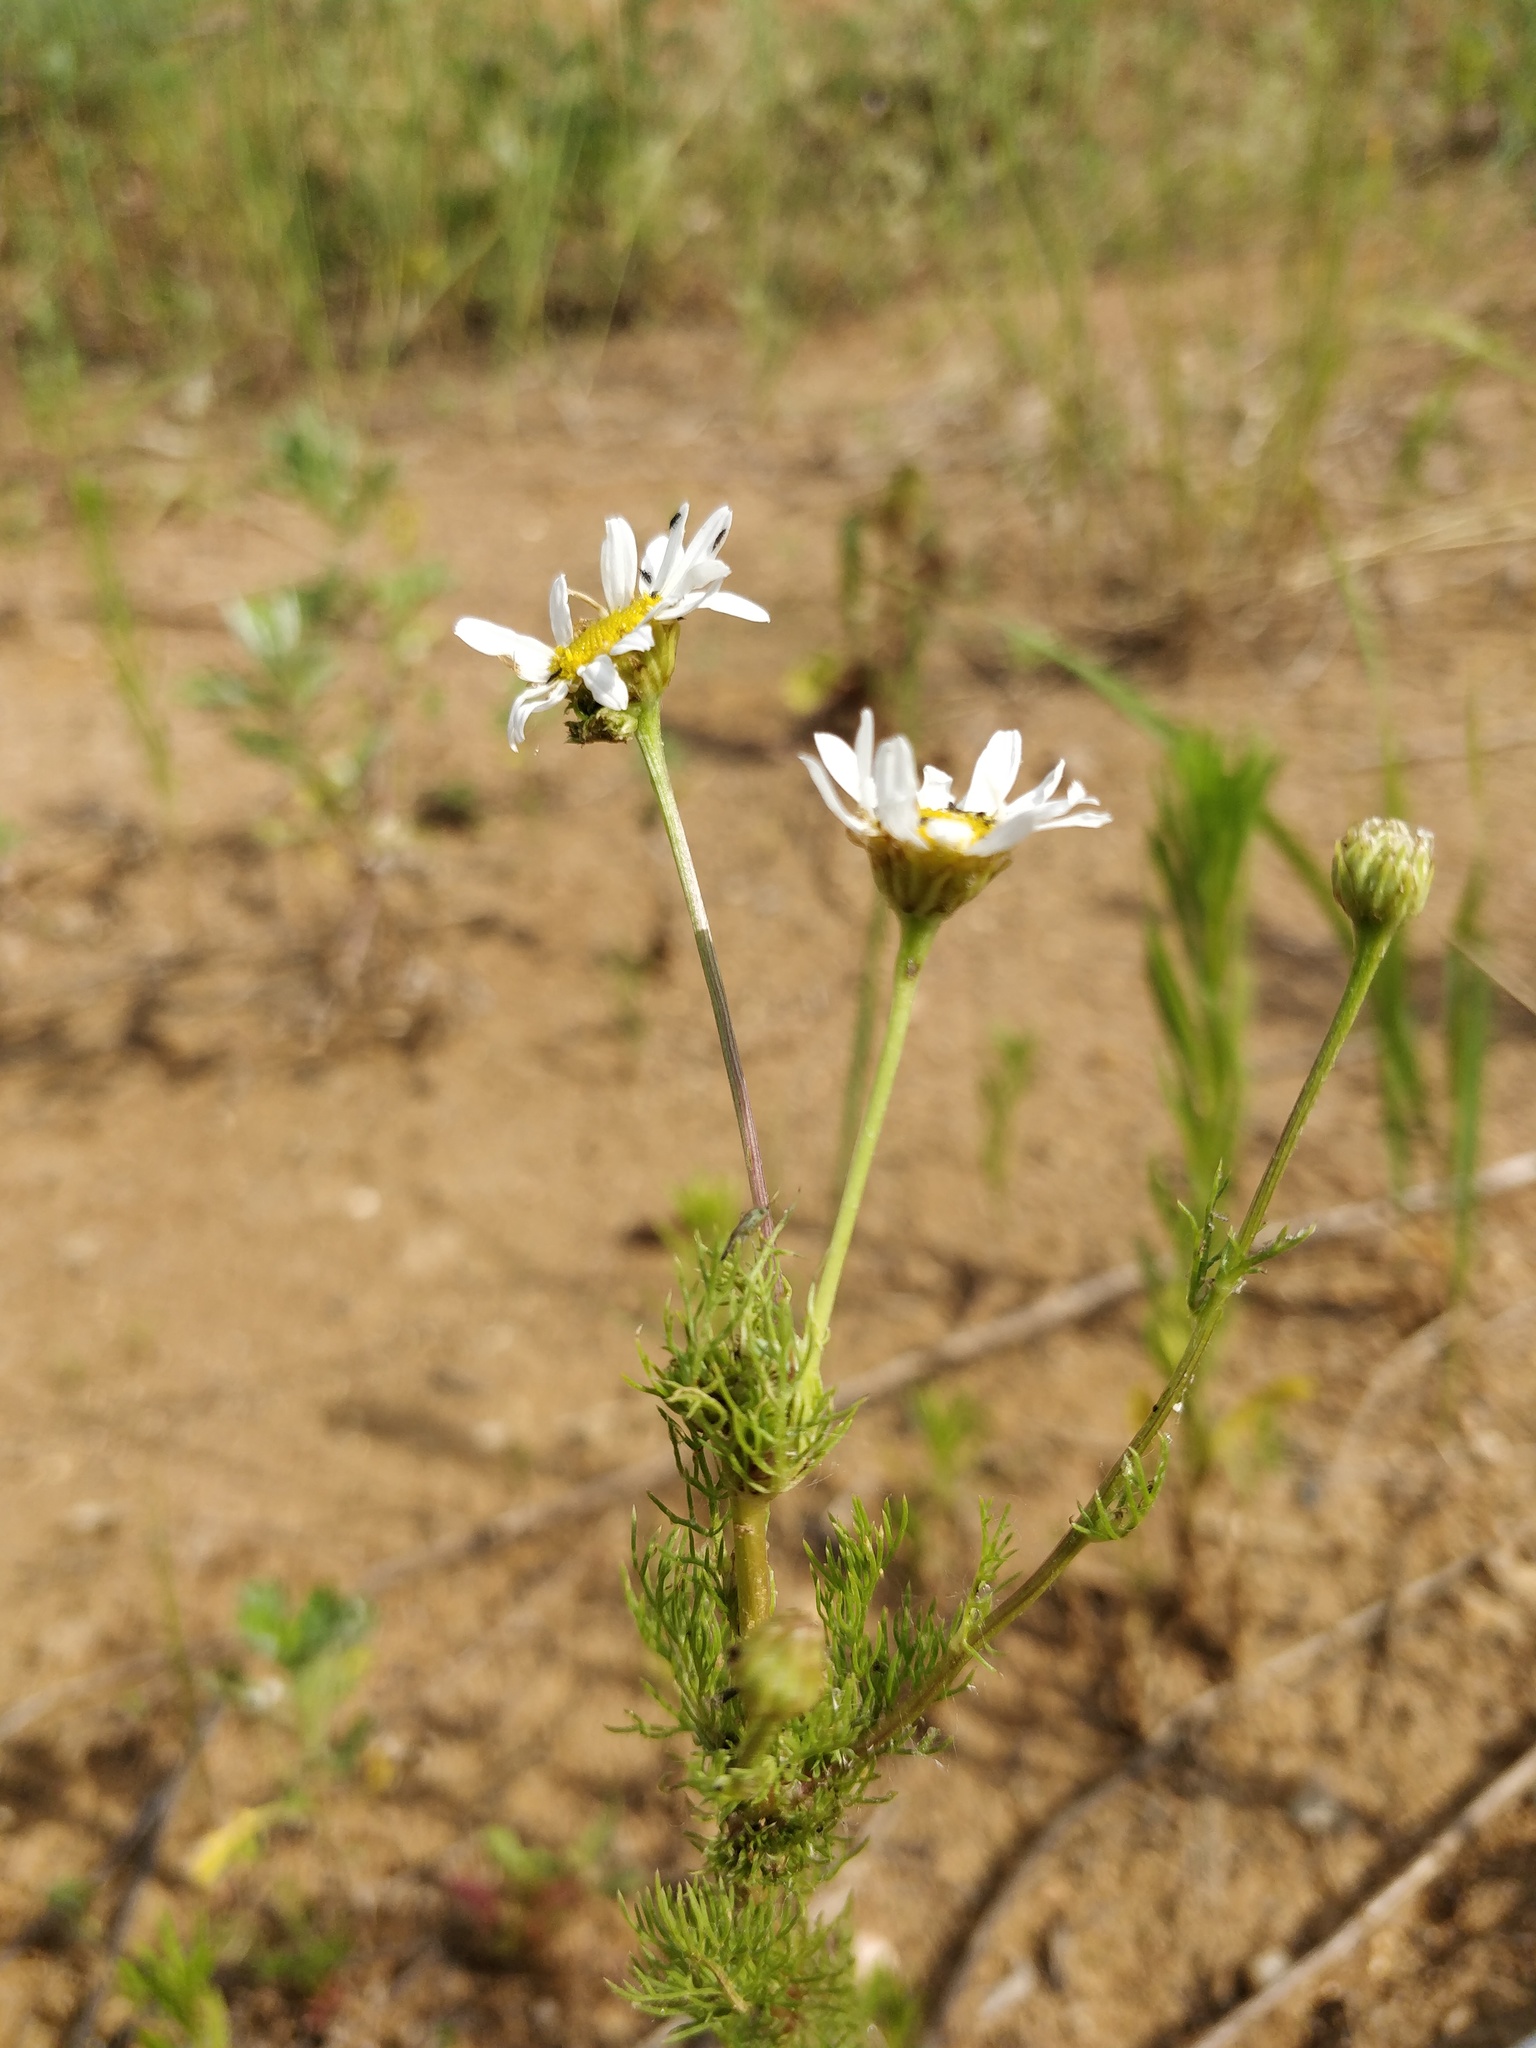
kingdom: Plantae
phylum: Tracheophyta
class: Magnoliopsida
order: Asterales
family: Asteraceae
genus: Tripleurospermum
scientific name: Tripleurospermum inodorum
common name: Scentless mayweed
